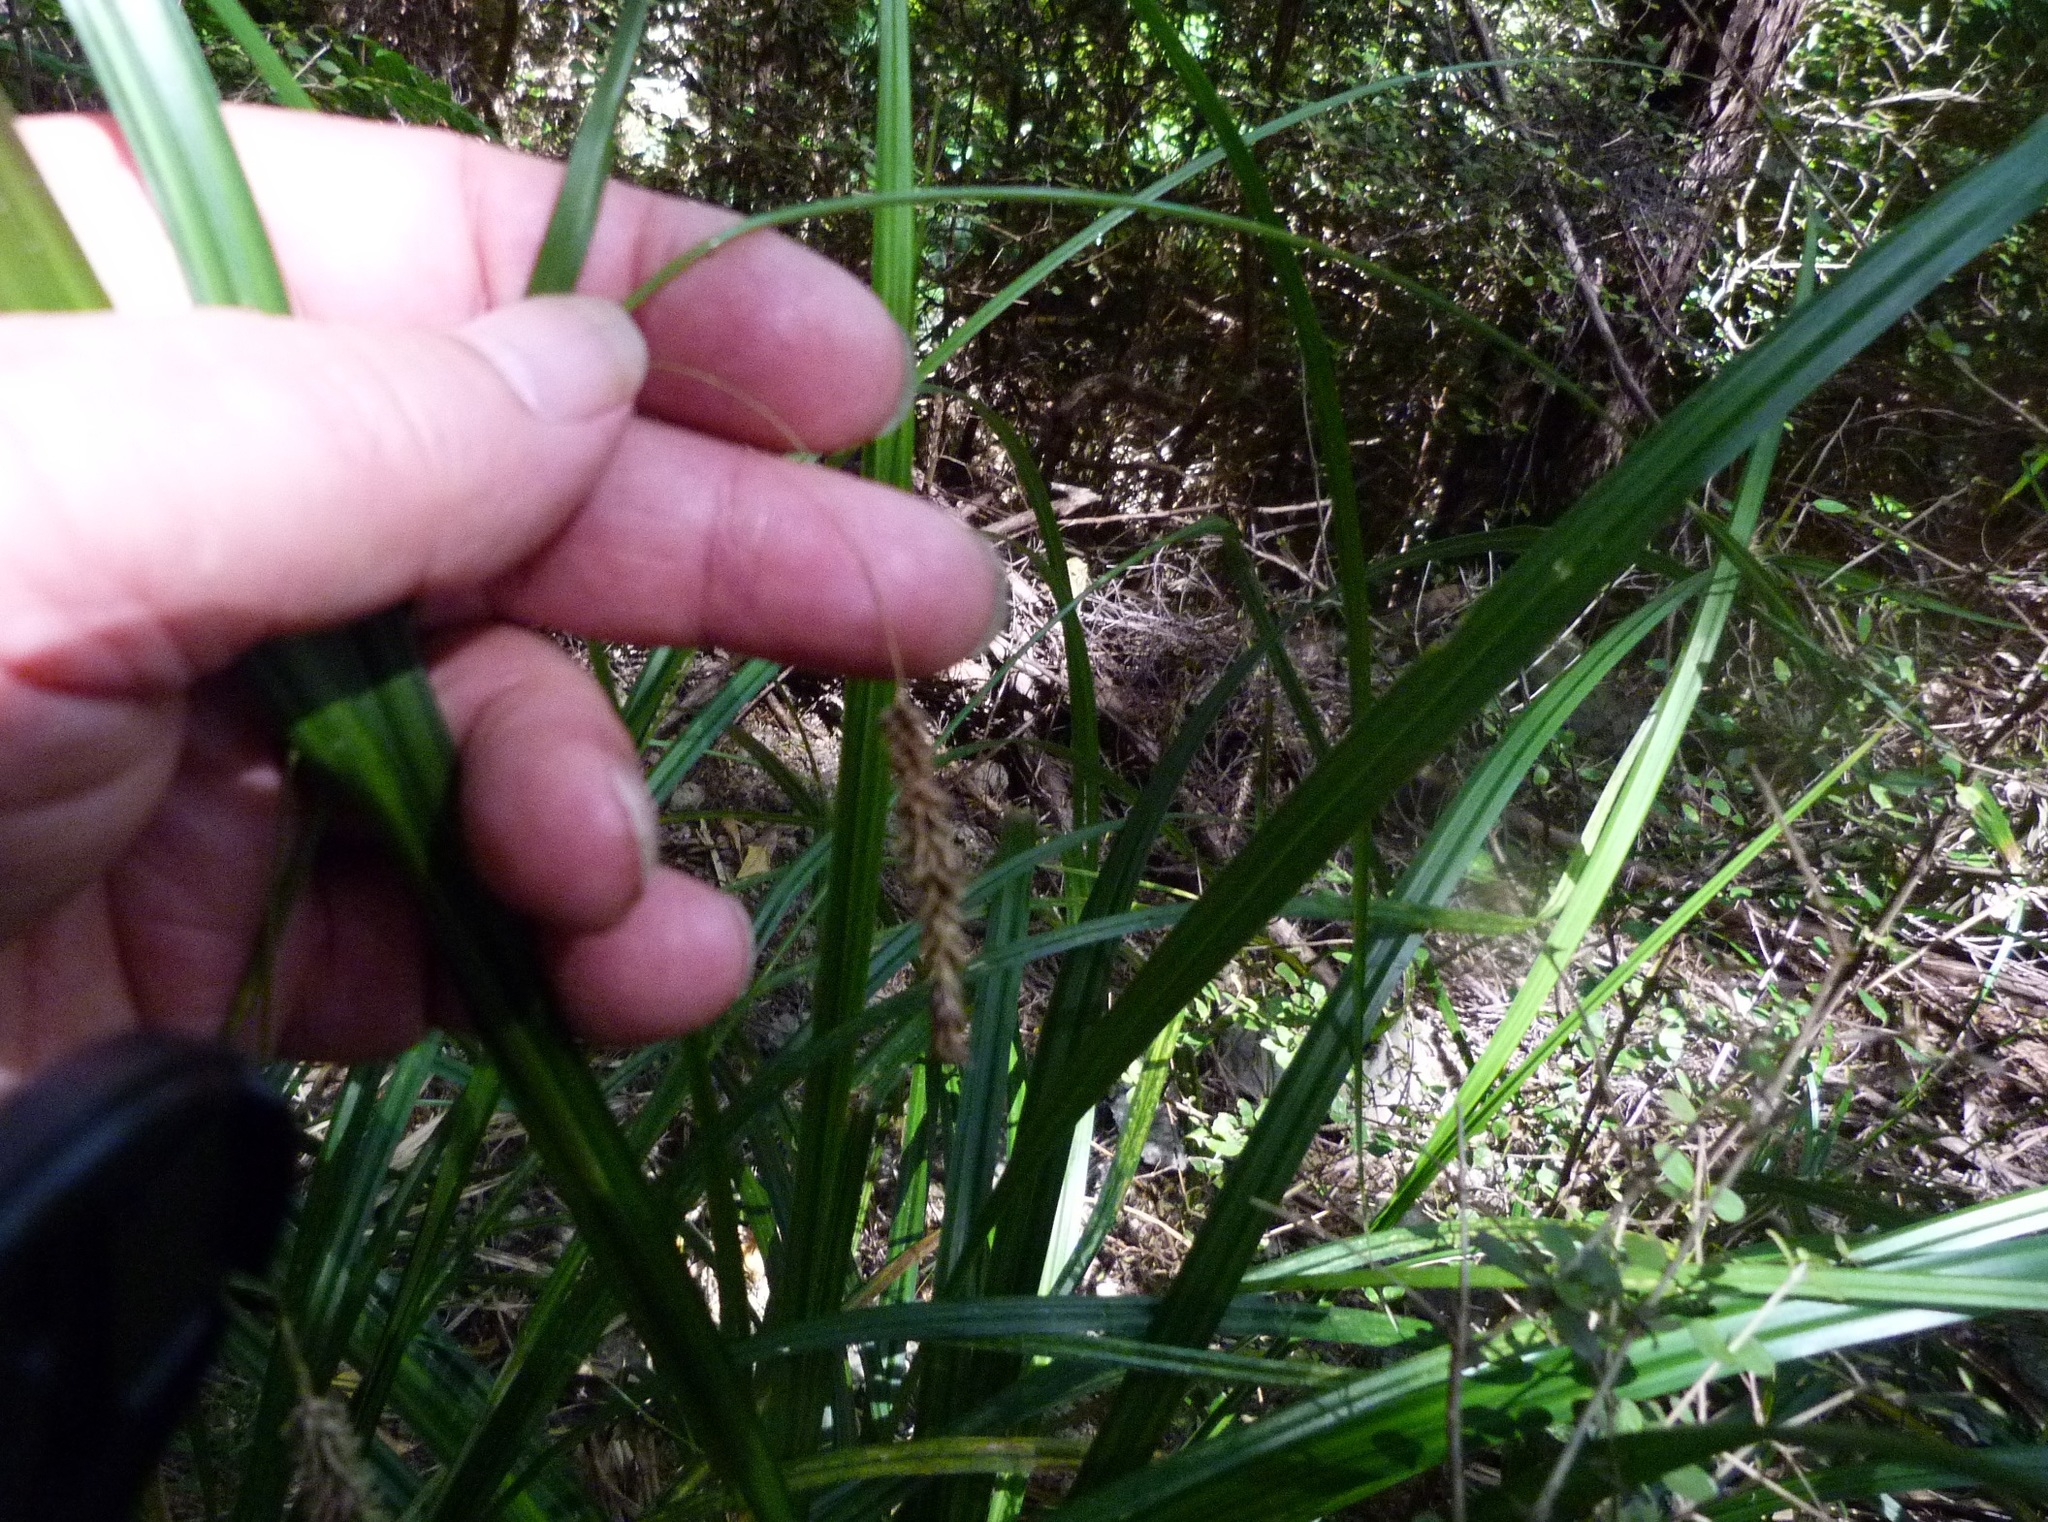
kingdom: Plantae
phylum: Tracheophyta
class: Liliopsida
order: Poales
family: Cyperaceae
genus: Carex
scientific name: Carex solandri
